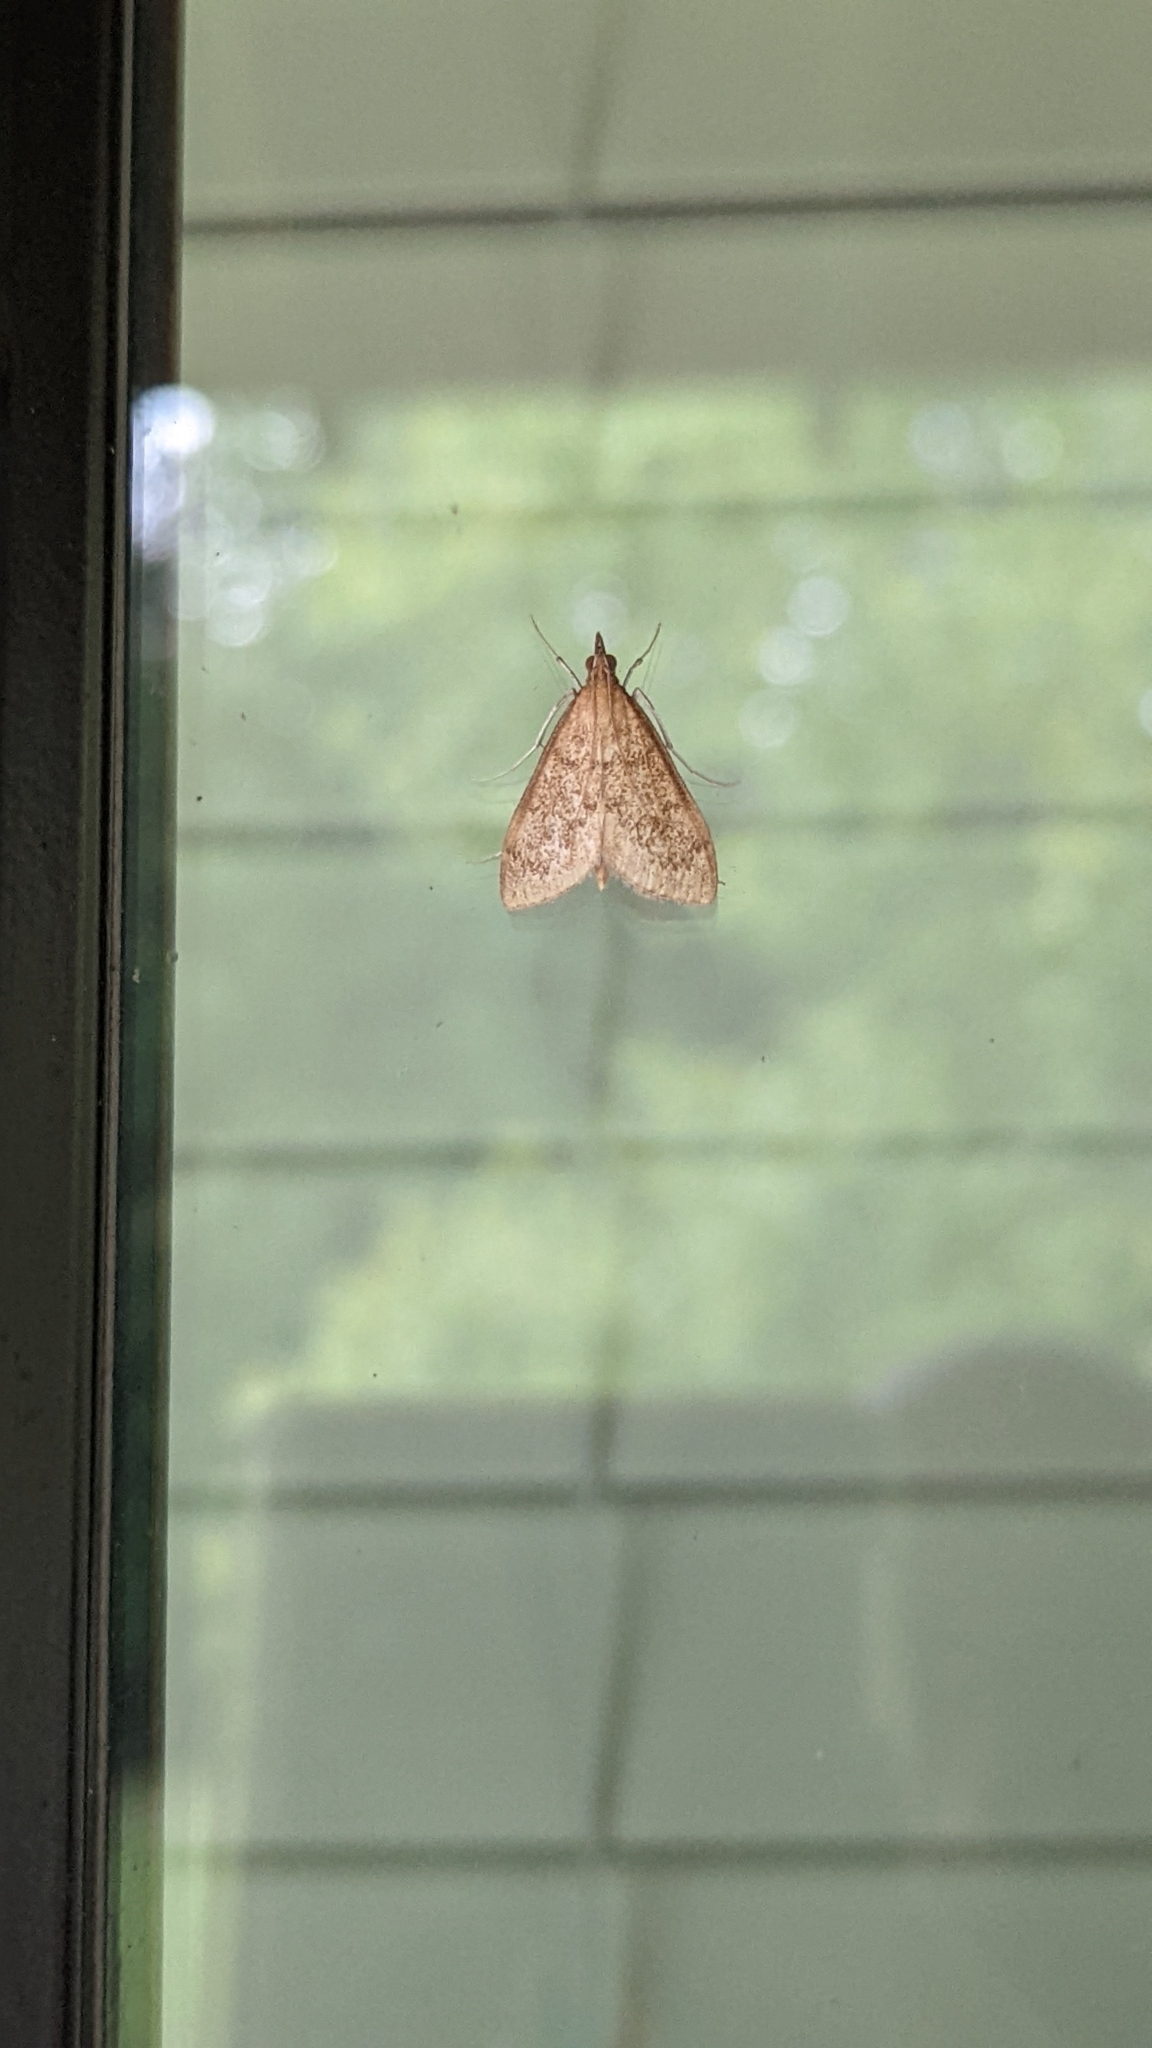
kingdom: Animalia
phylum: Arthropoda
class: Insecta
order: Lepidoptera
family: Crambidae
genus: Saucrobotys
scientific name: Saucrobotys futilalis
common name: Dogbane saucrobotys moth
